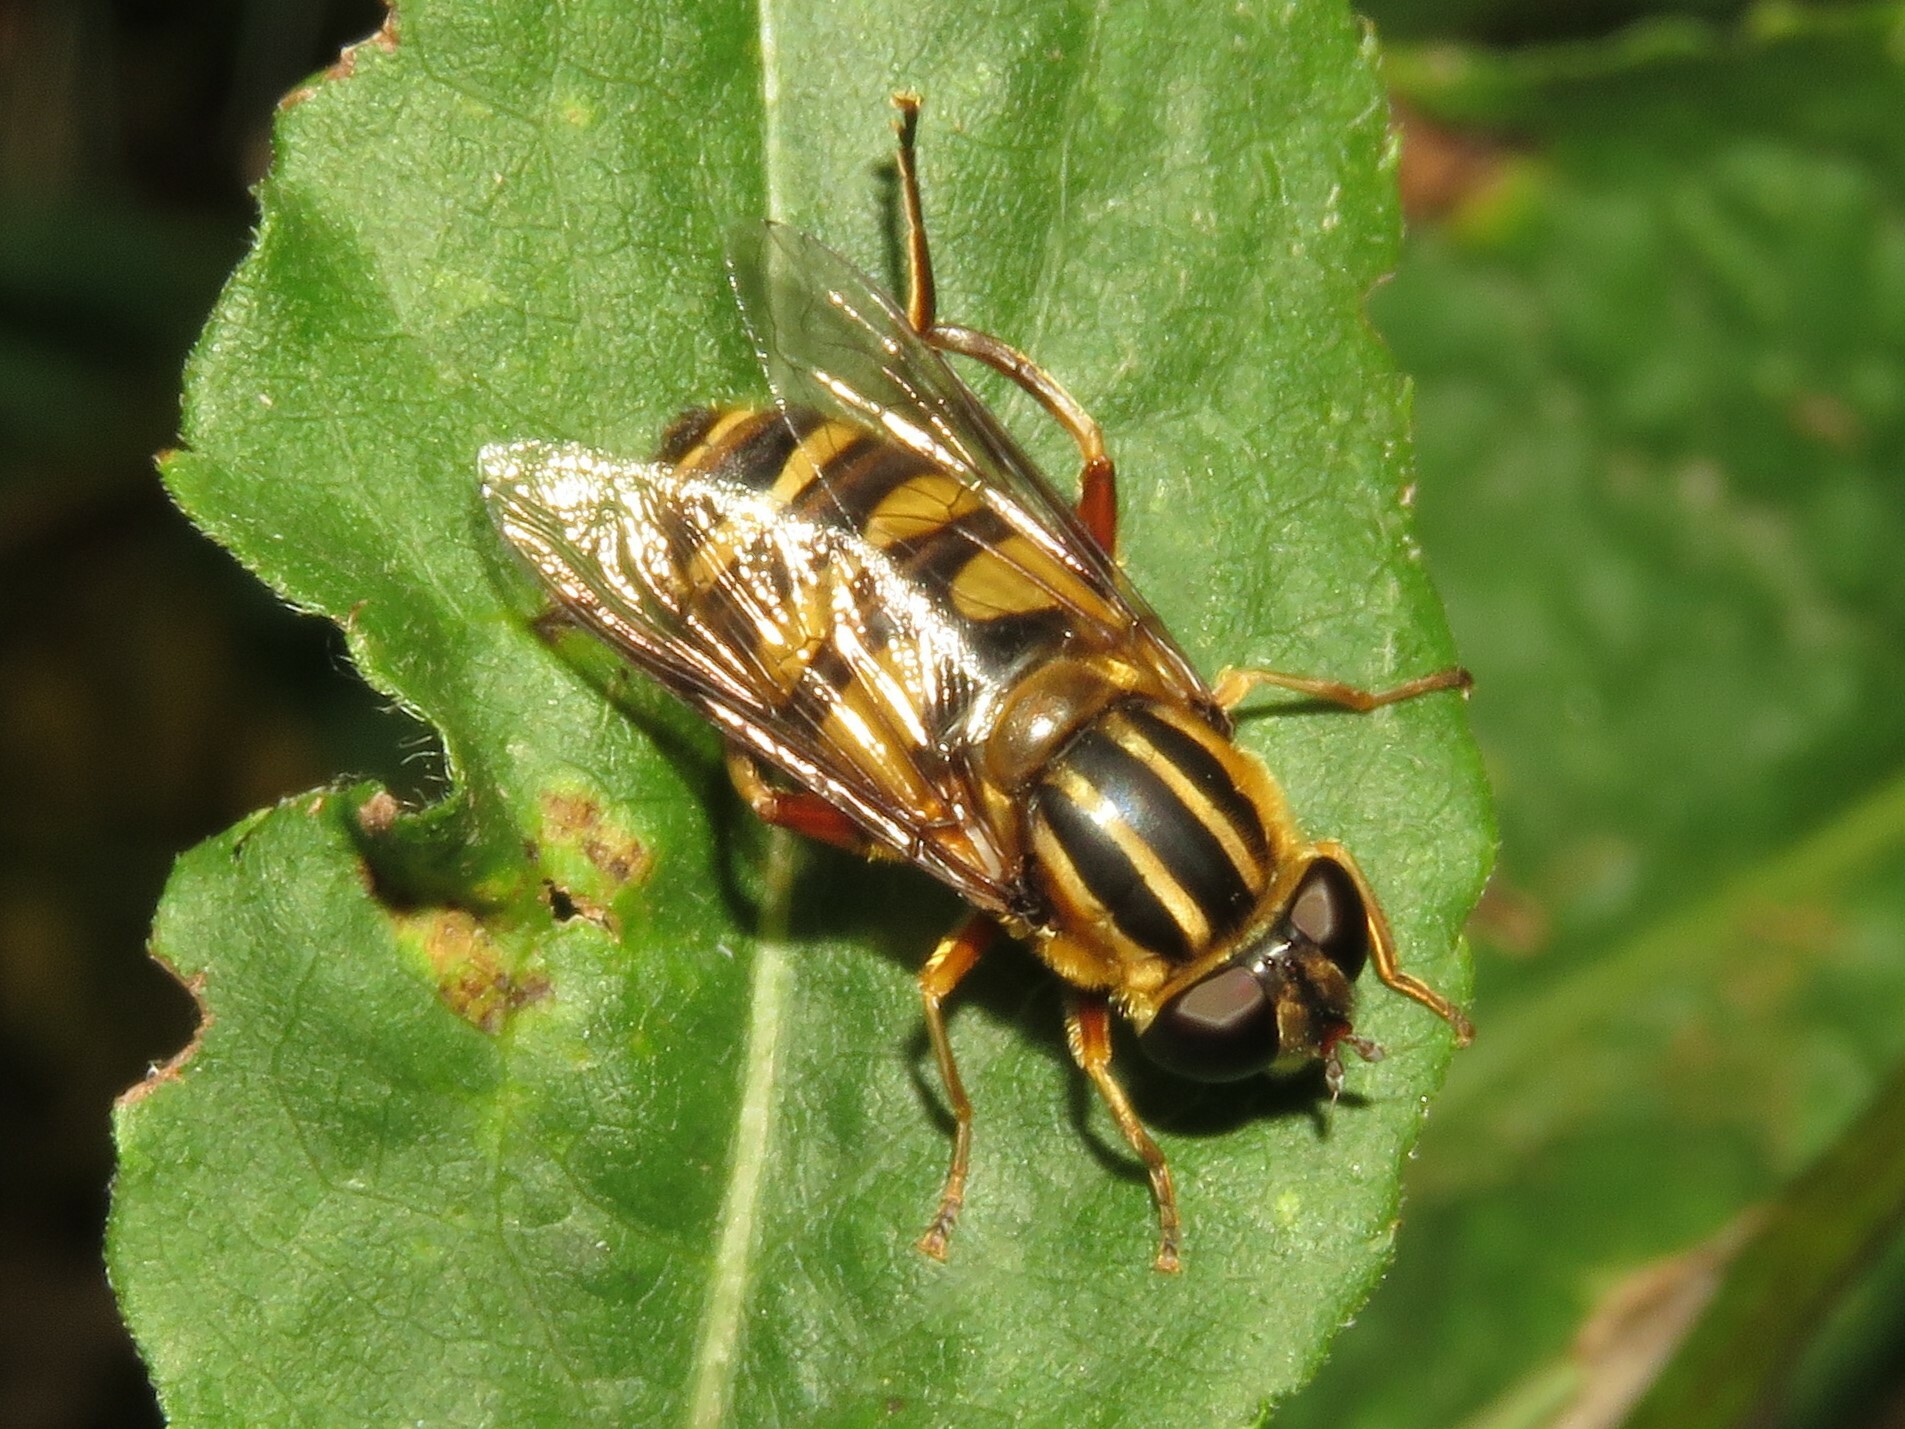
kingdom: Animalia
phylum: Arthropoda
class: Insecta
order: Diptera
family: Syrphidae
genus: Helophilus
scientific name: Helophilus fasciatus
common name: Narrow-headed marsh fly
